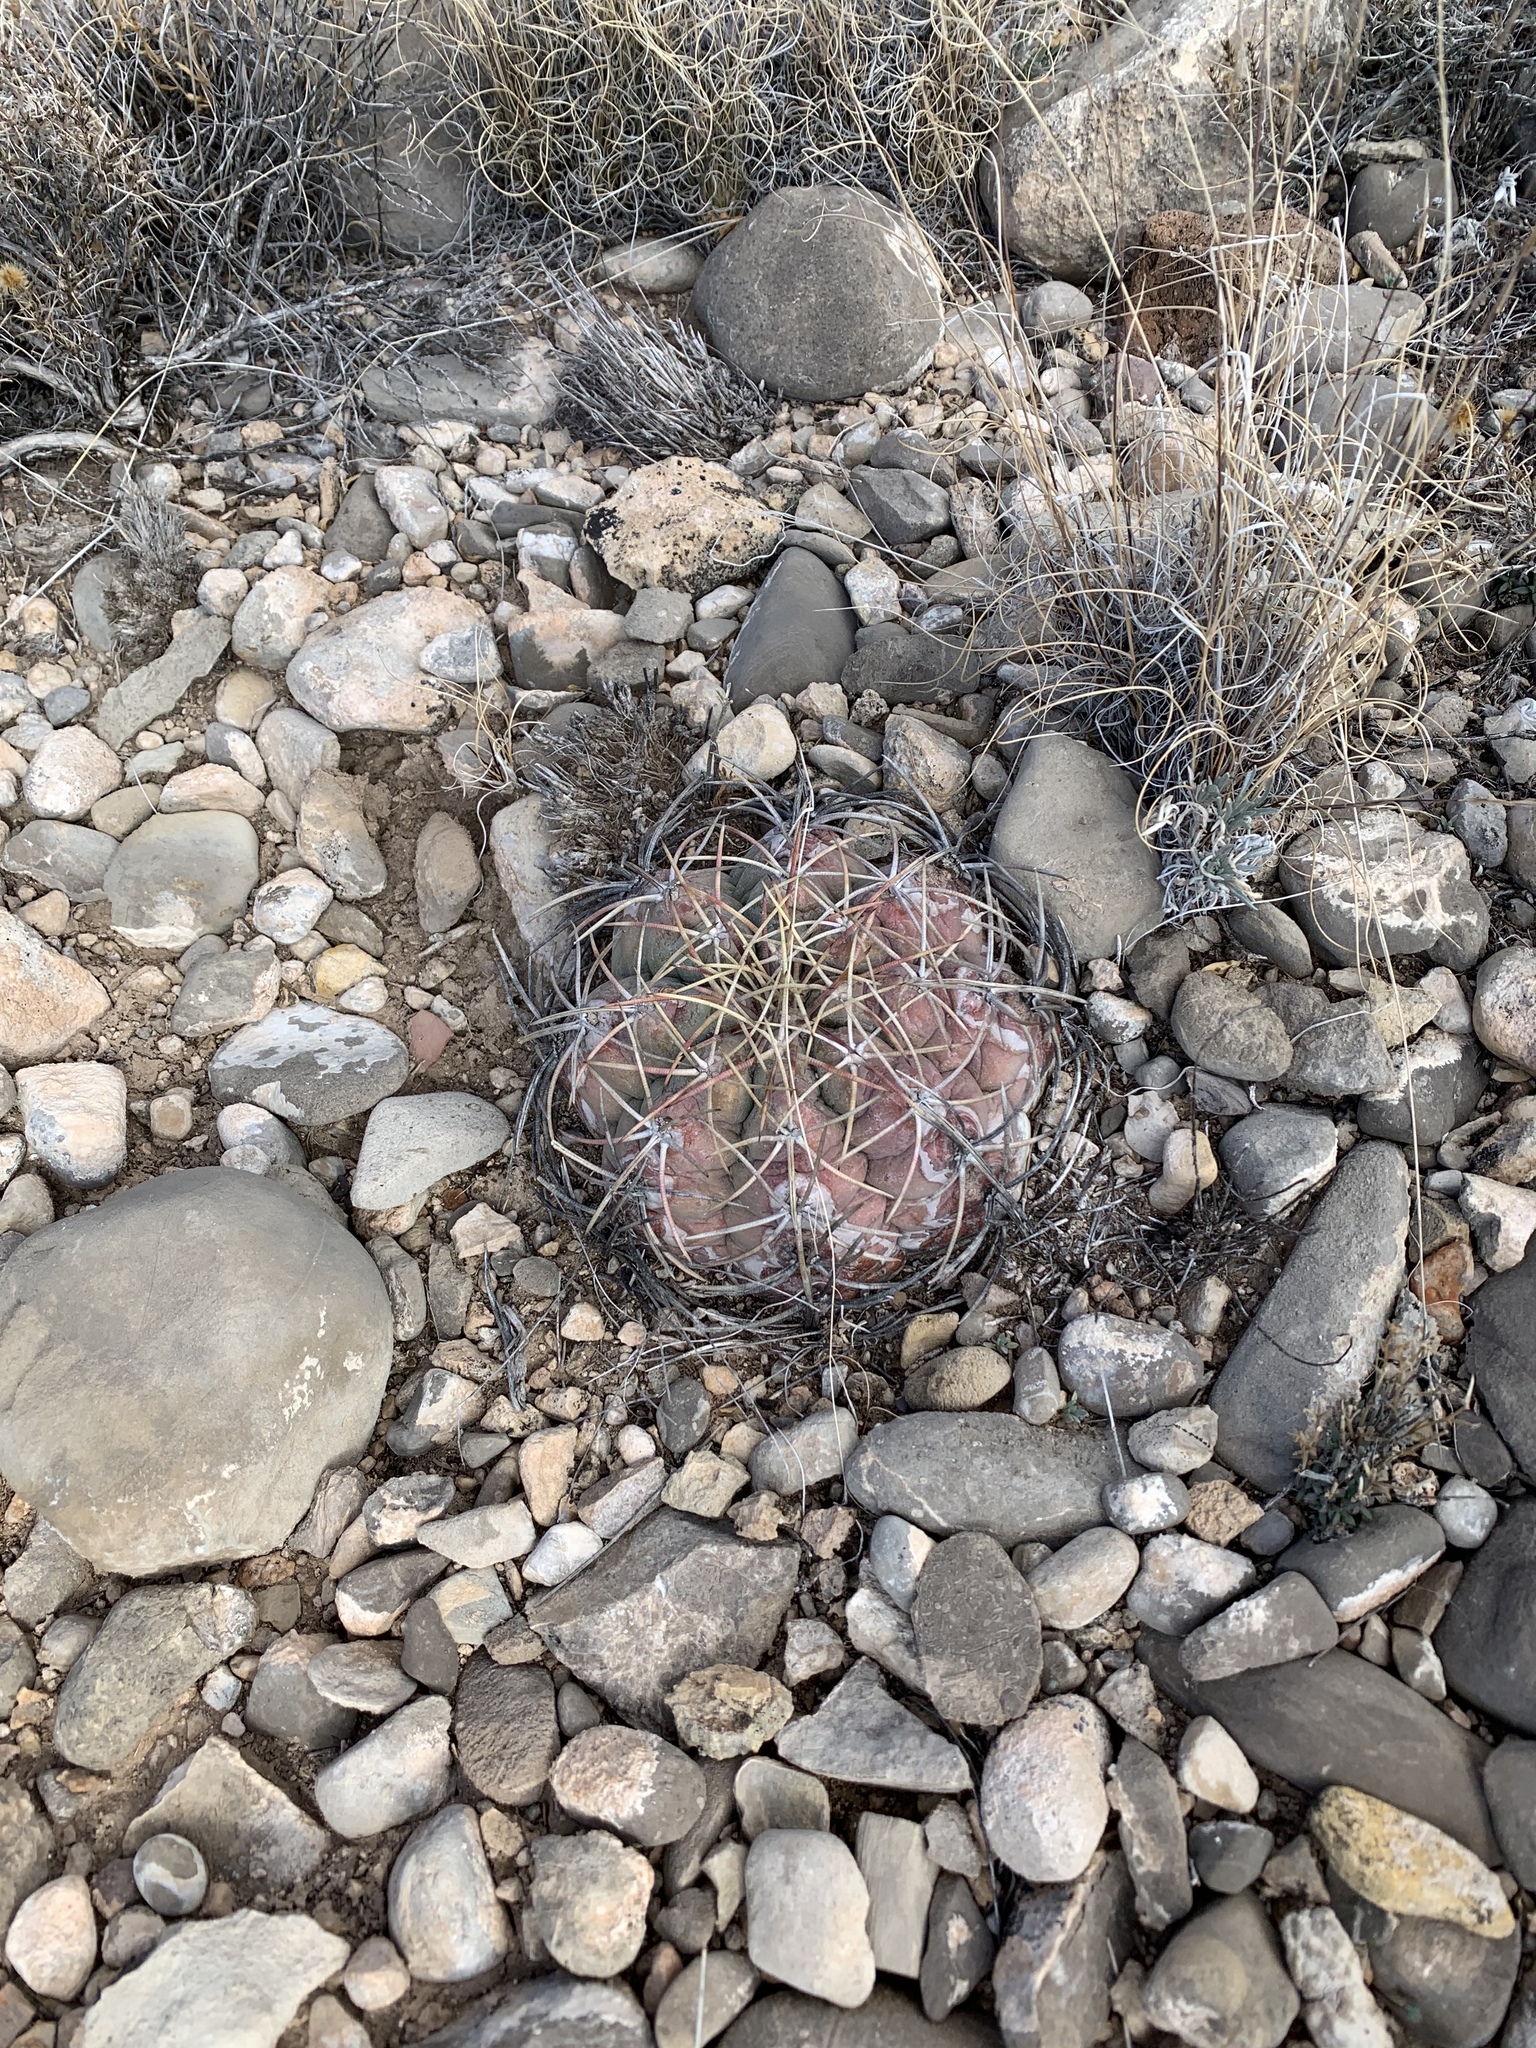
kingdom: Plantae
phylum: Tracheophyta
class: Magnoliopsida
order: Caryophyllales
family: Cactaceae
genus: Echinocactus
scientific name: Echinocactus horizonthalonius
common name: Devilshead
